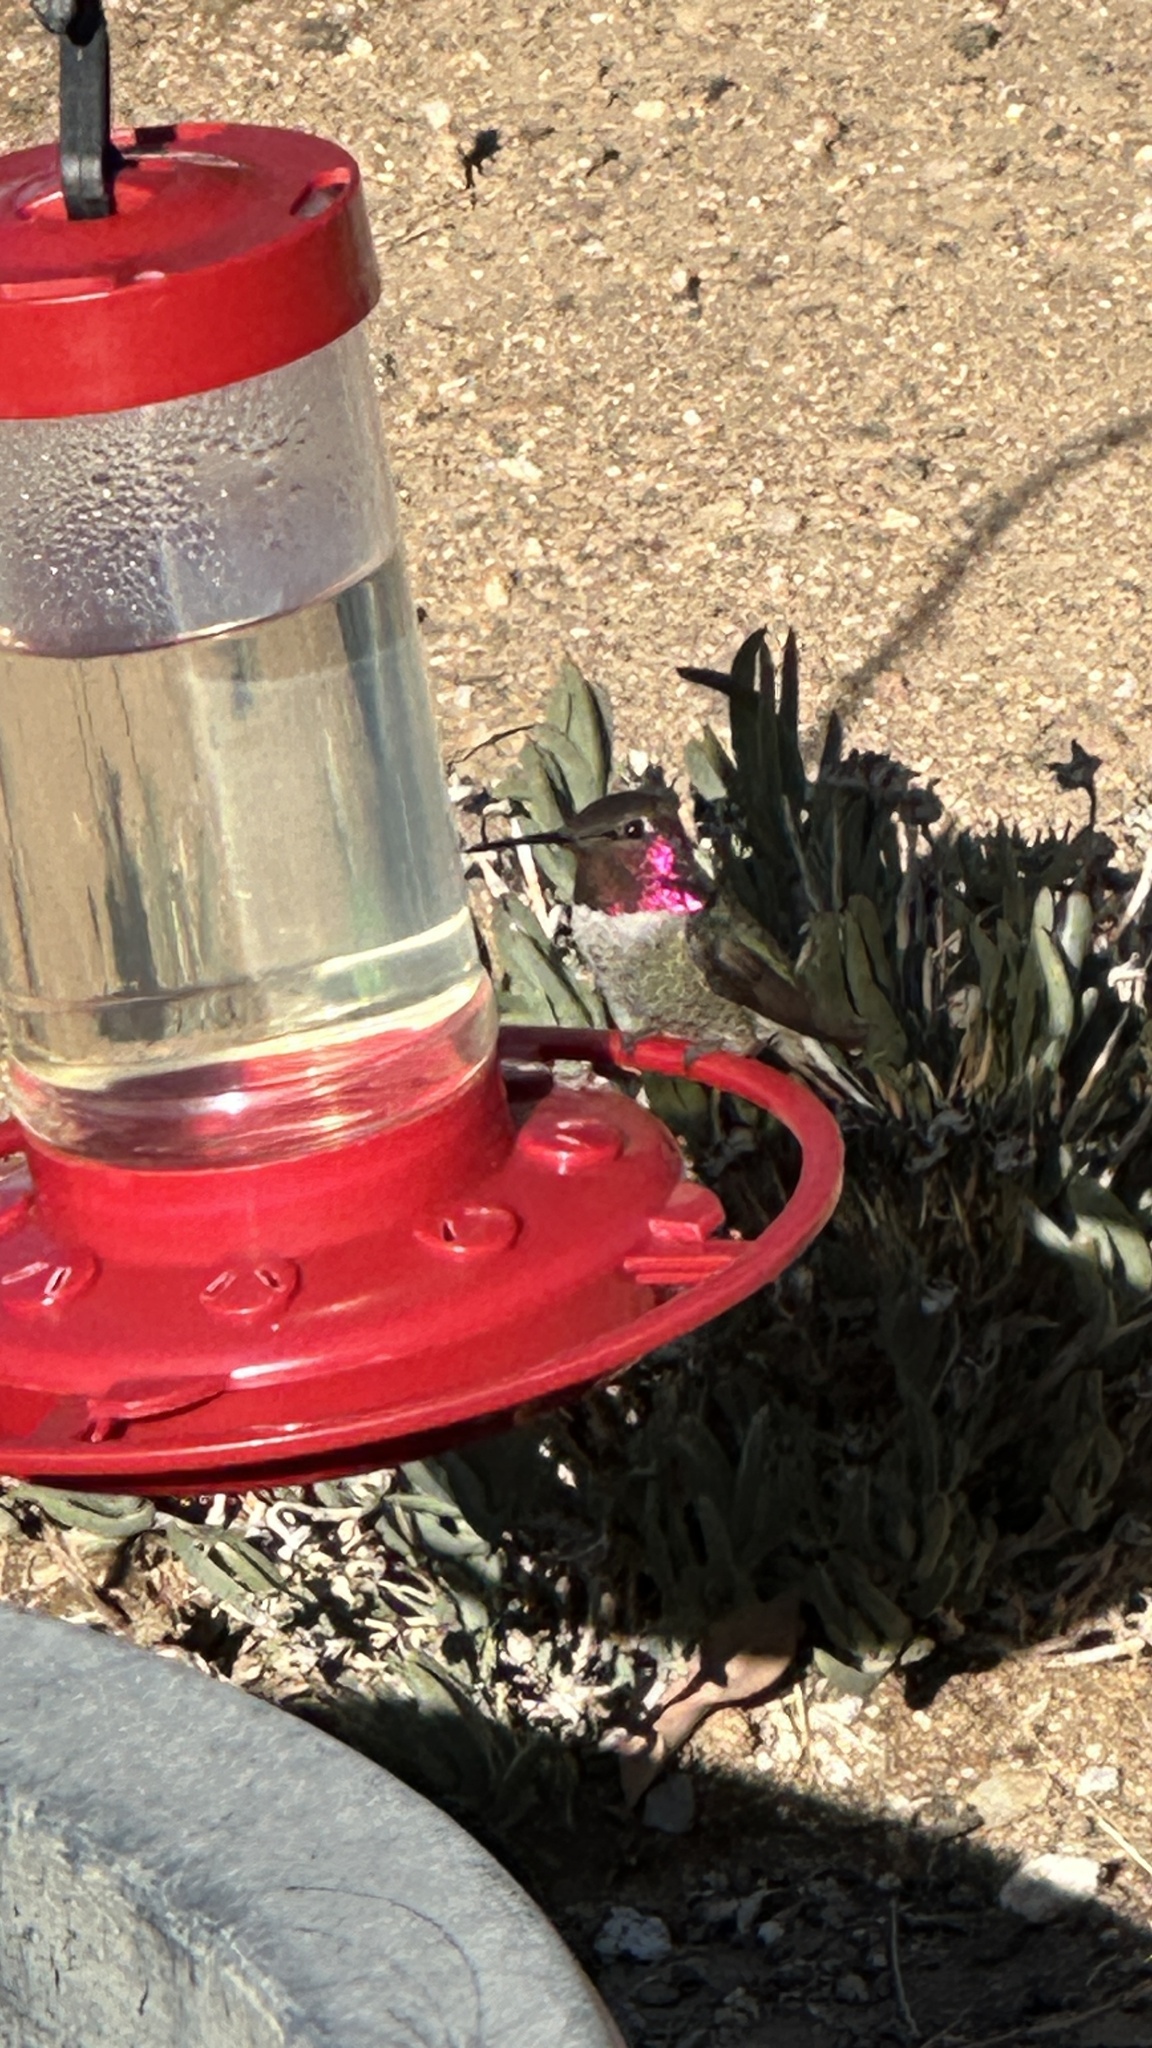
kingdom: Animalia
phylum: Chordata
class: Aves
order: Apodiformes
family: Trochilidae
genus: Calypte
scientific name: Calypte anna
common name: Anna's hummingbird
